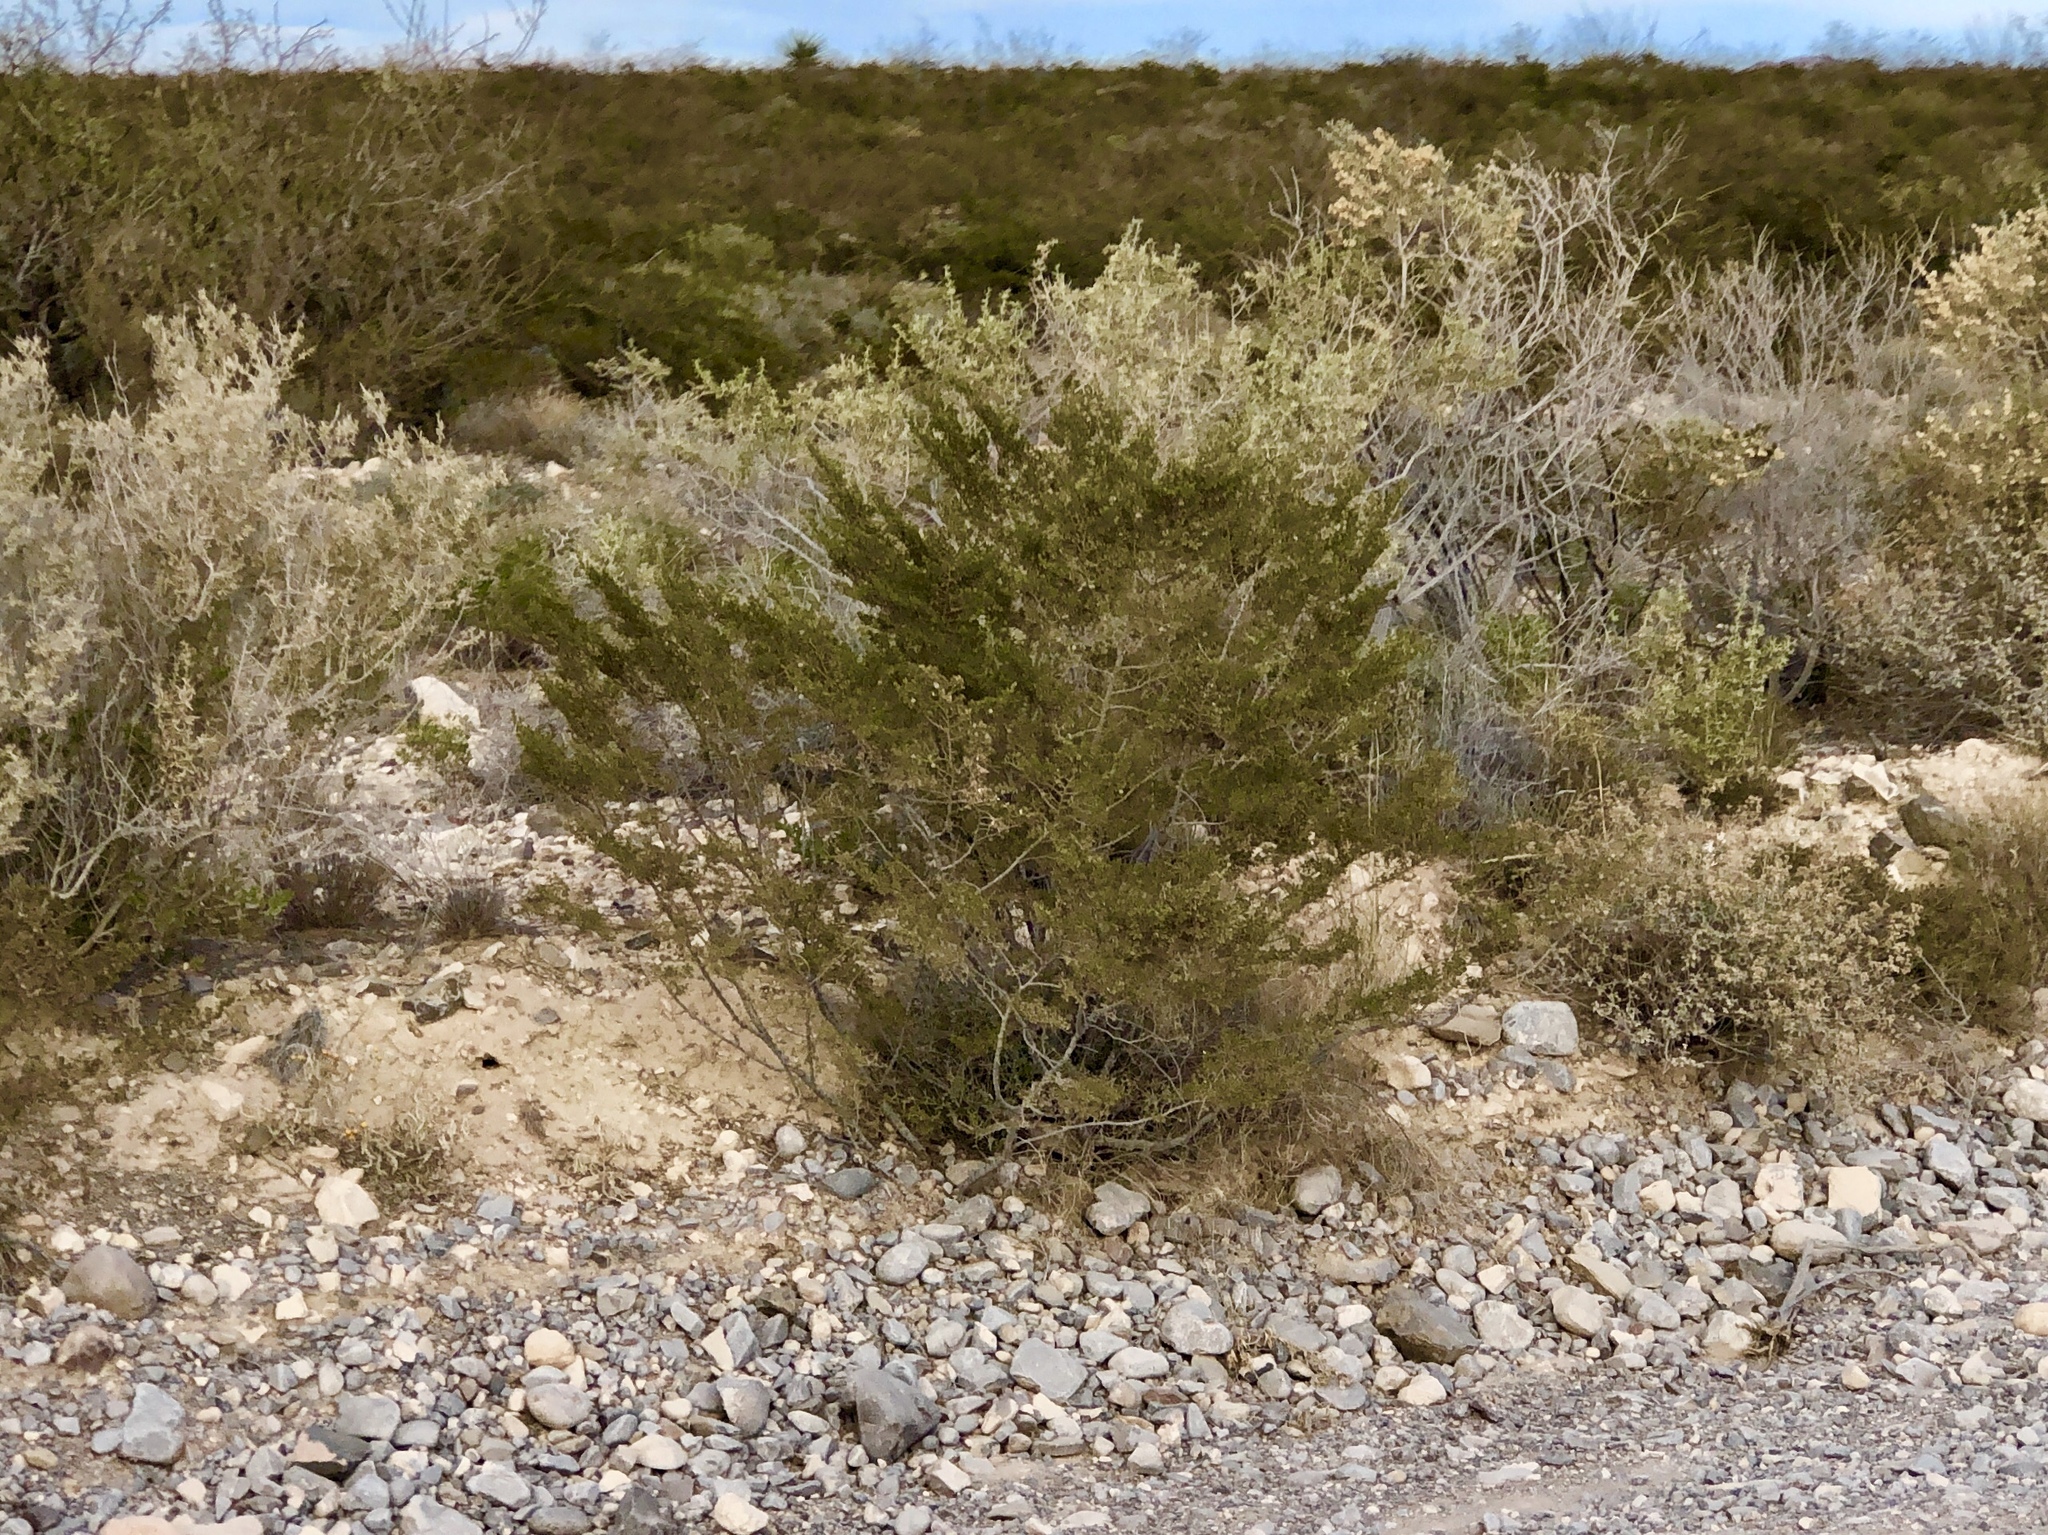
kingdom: Plantae
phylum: Tracheophyta
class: Magnoliopsida
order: Zygophyllales
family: Zygophyllaceae
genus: Larrea
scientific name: Larrea tridentata
